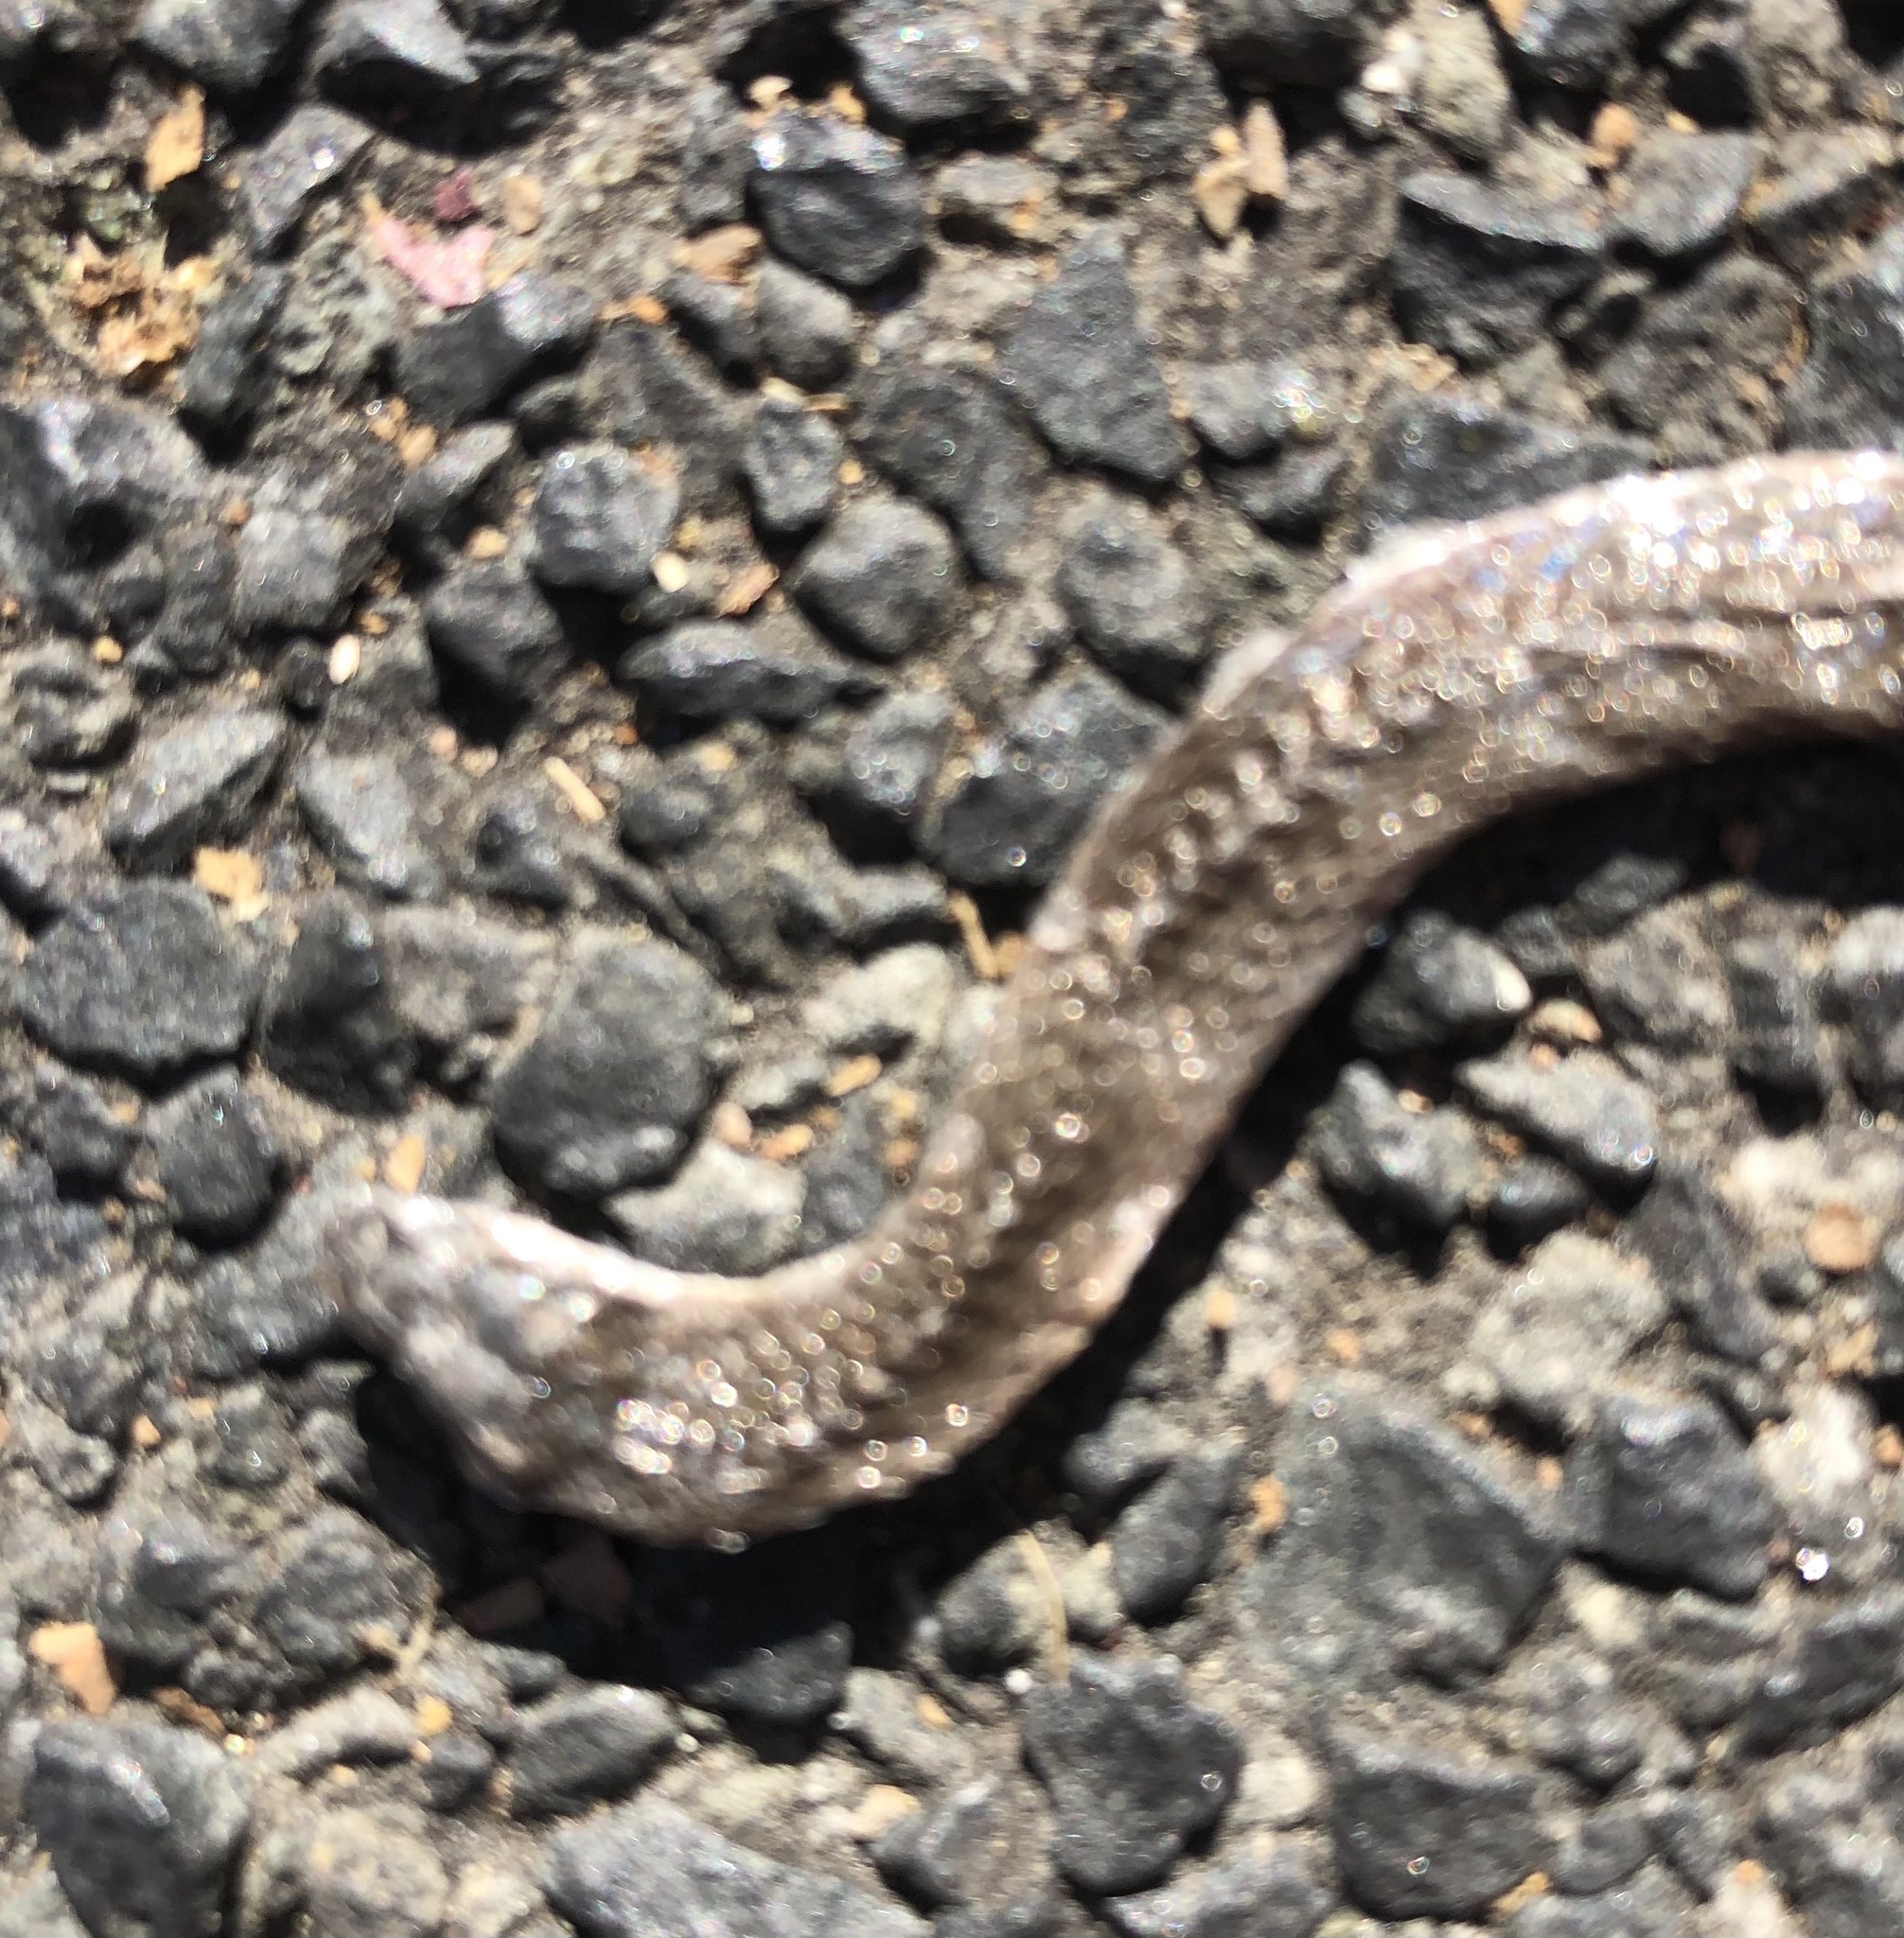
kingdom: Animalia
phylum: Chordata
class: Squamata
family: Colubridae
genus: Haldea
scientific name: Haldea striatula
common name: Rough earth snake
